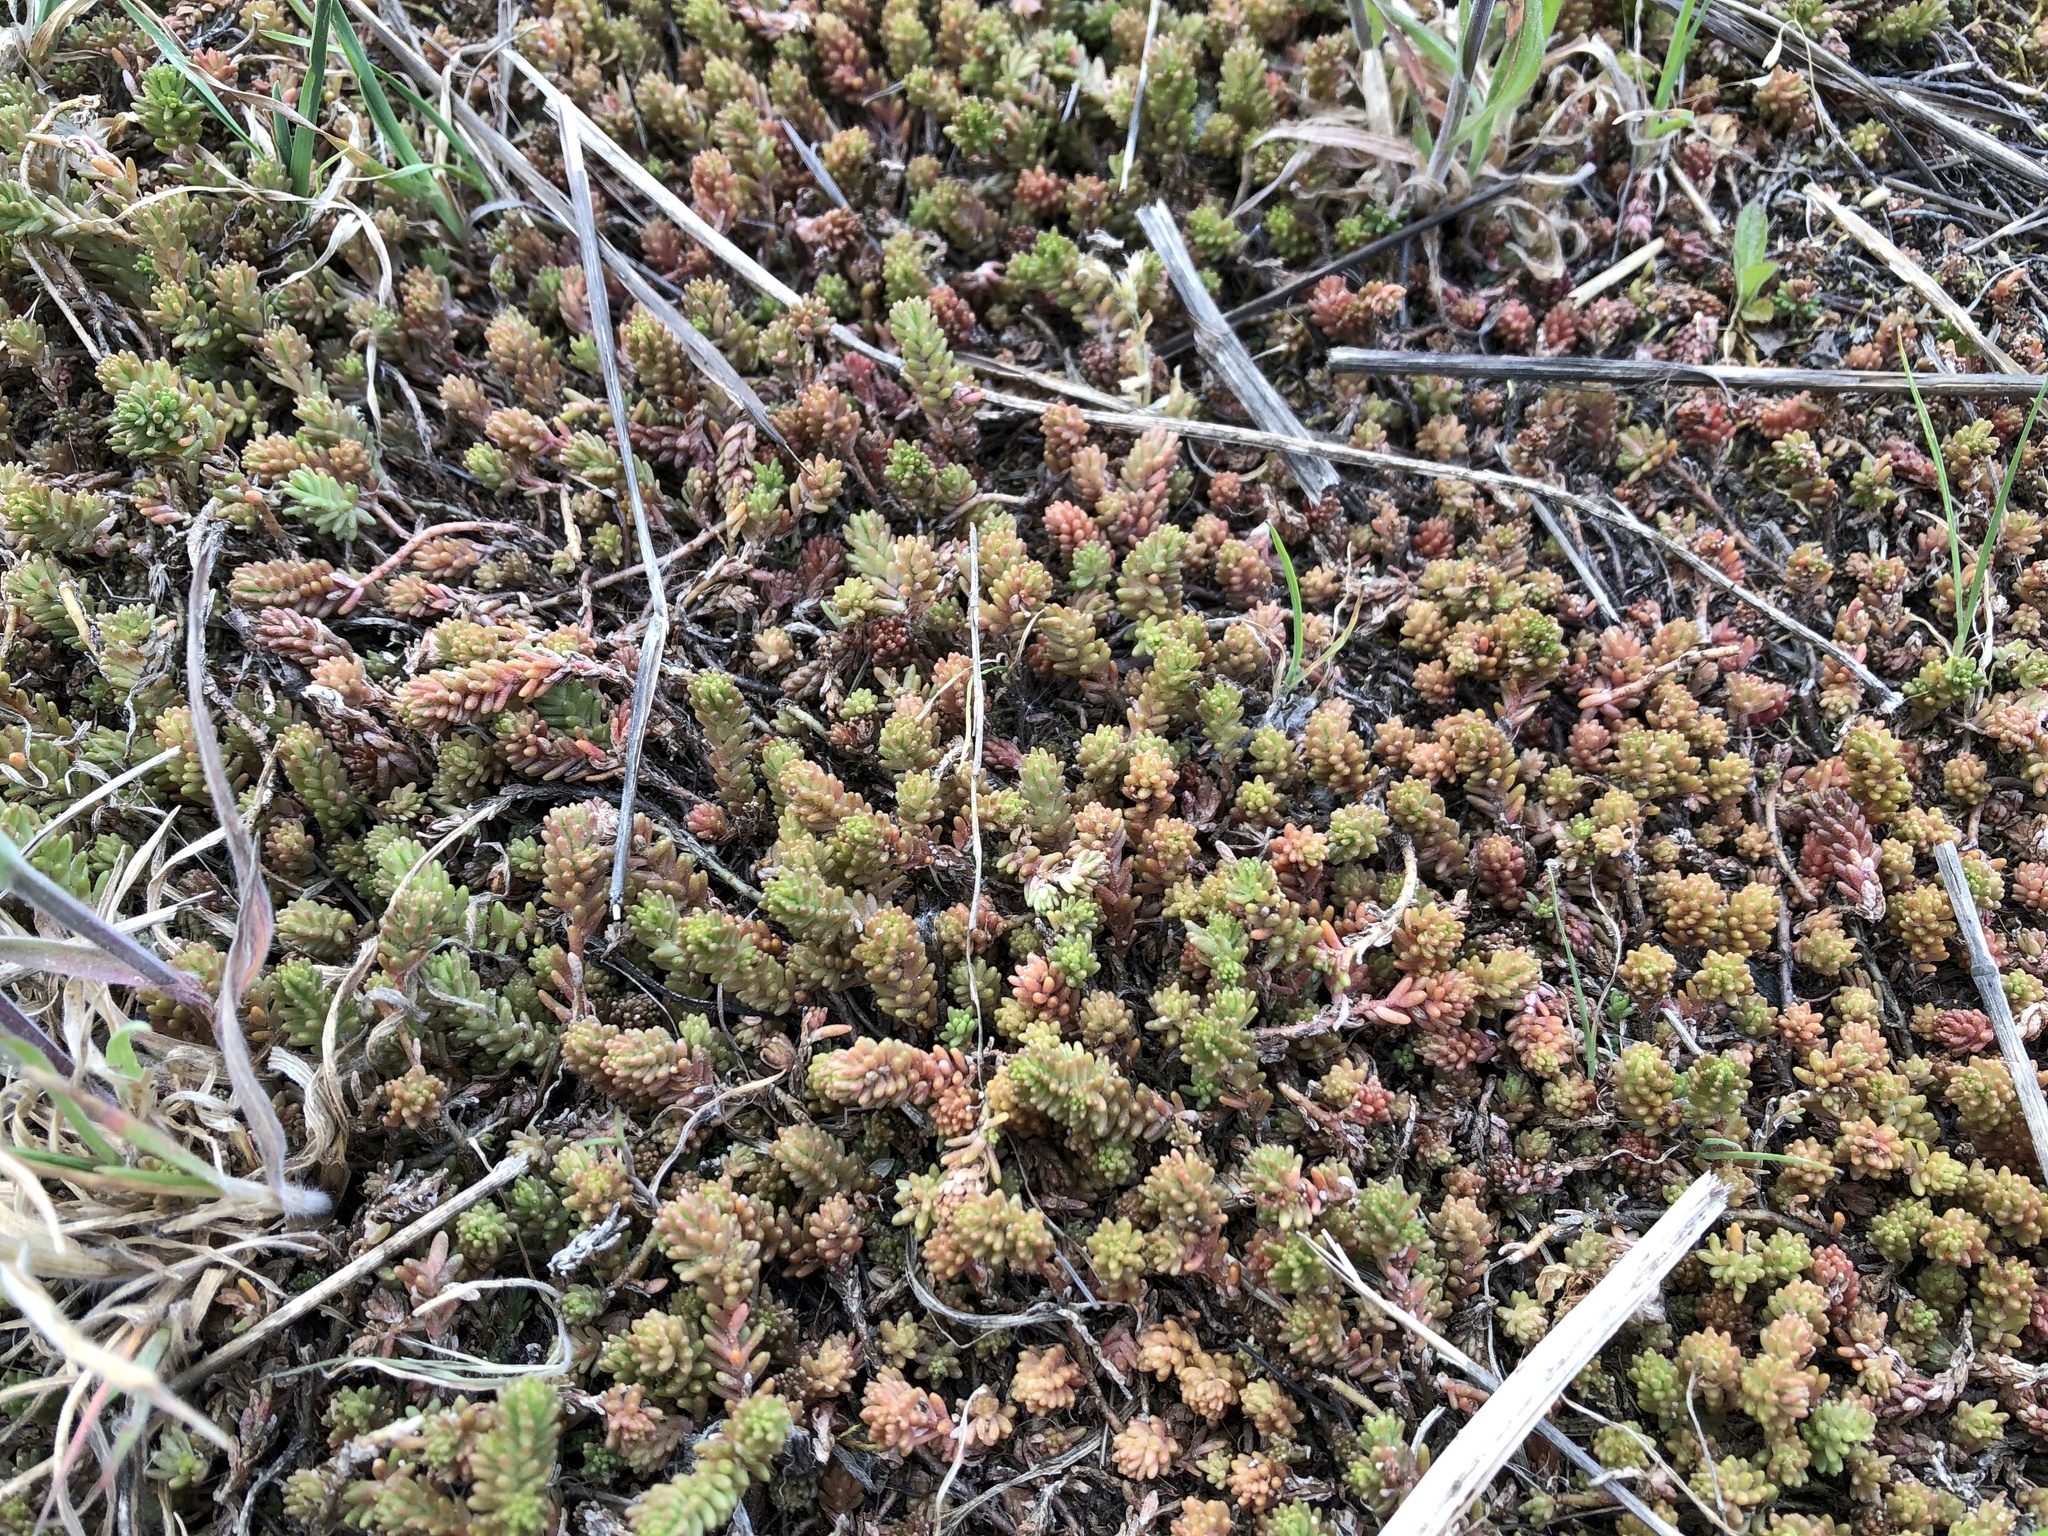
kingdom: Plantae
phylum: Tracheophyta
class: Magnoliopsida
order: Saxifragales
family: Crassulaceae
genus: Sedum
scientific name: Sedum sexangulare
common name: Tasteless stonecrop
